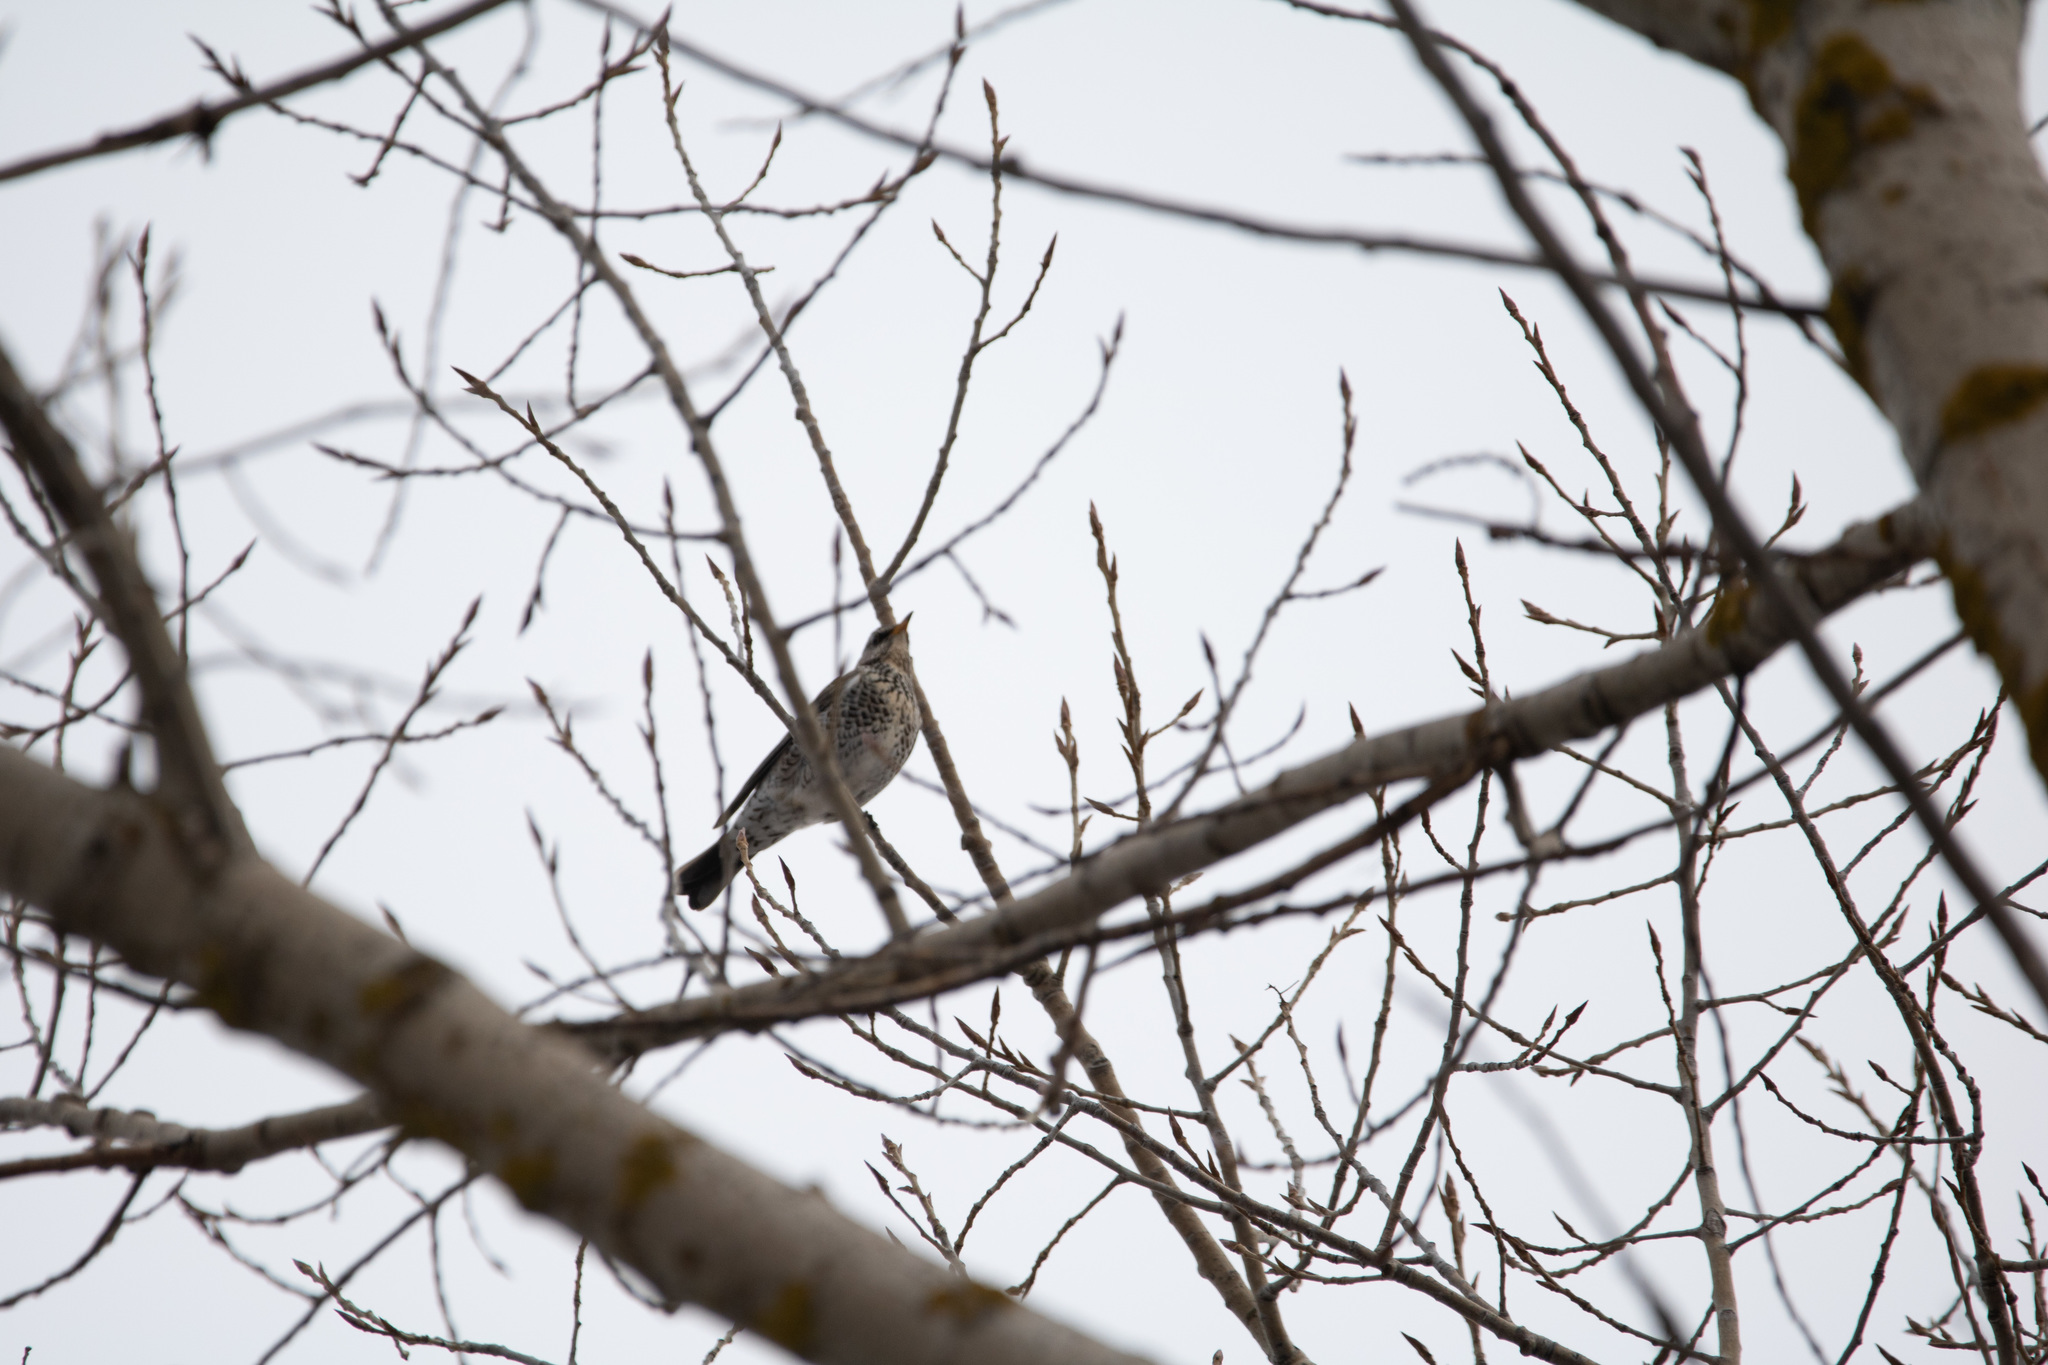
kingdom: Animalia
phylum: Chordata
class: Aves
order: Passeriformes
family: Turdidae
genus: Turdus
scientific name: Turdus pilaris
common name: Fieldfare
